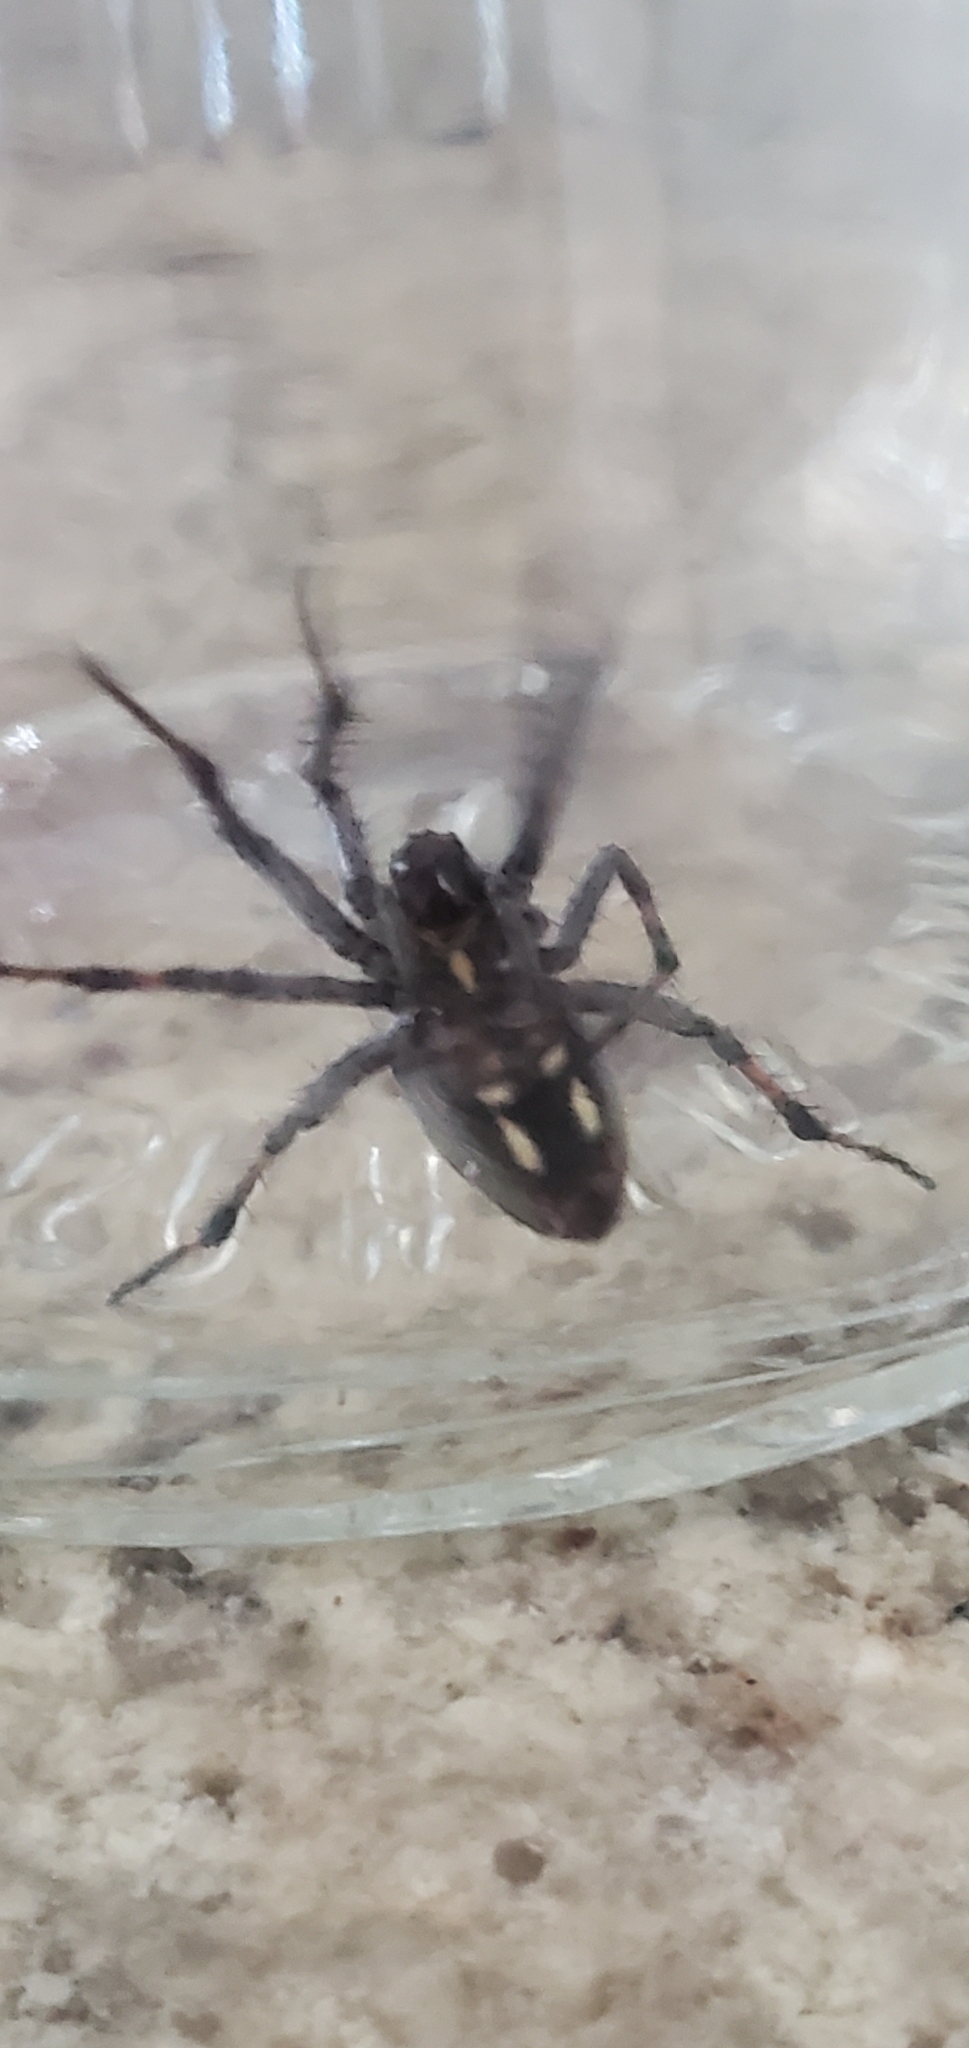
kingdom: Animalia
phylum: Arthropoda
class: Arachnida
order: Araneae
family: Araneidae
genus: Neoscona
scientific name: Neoscona oaxacensis
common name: Orb weavers
